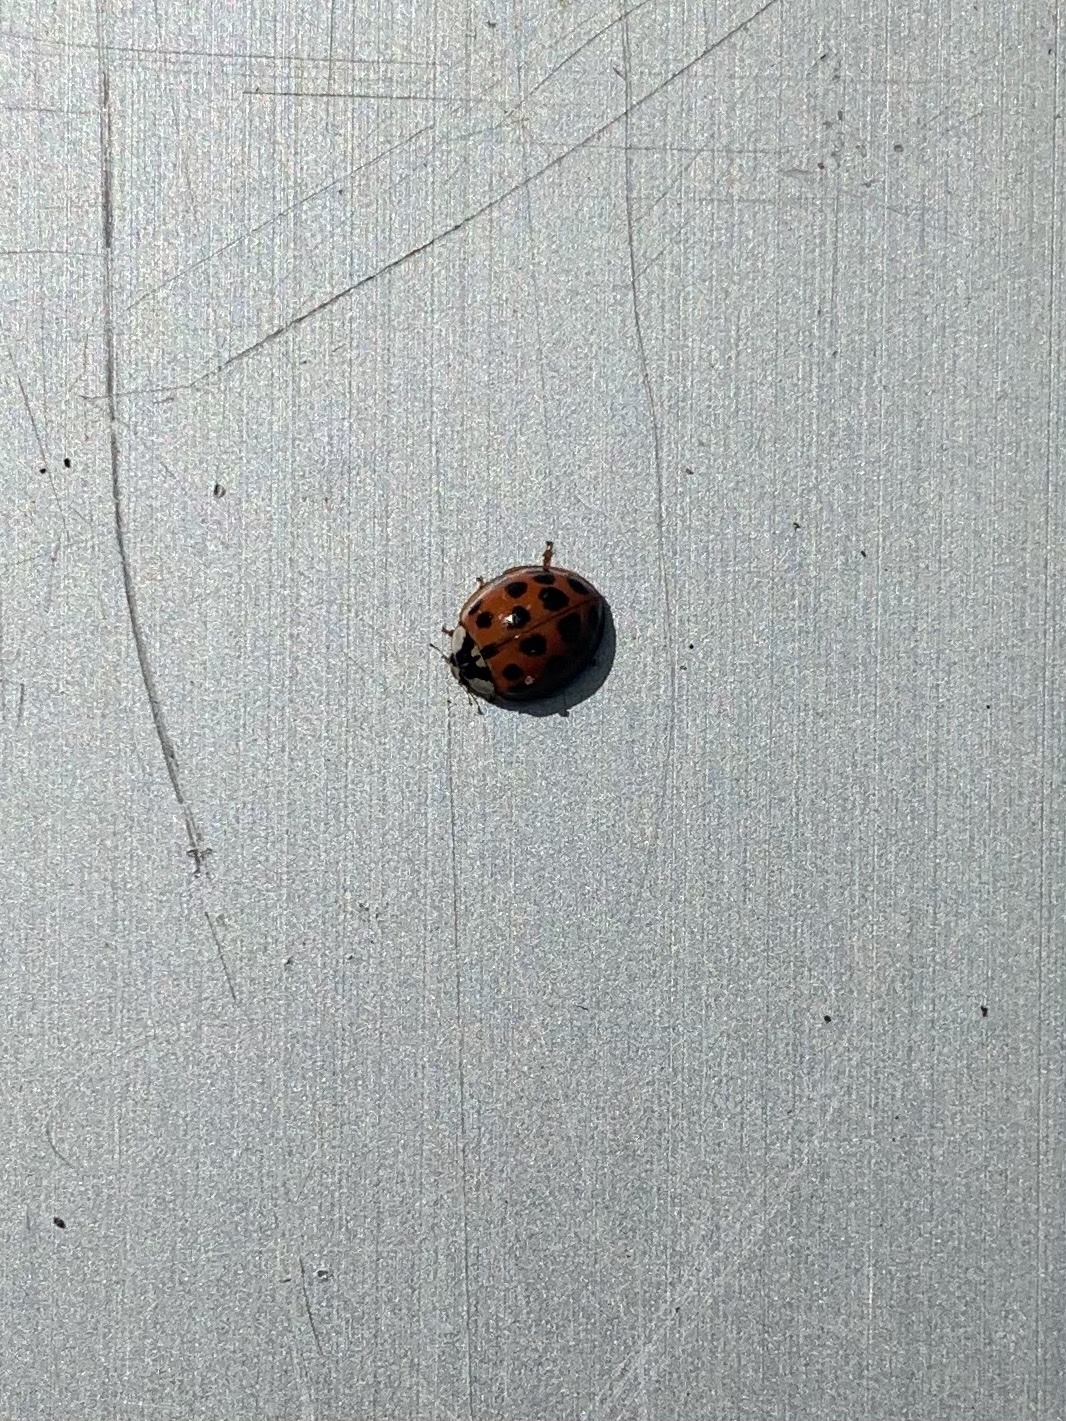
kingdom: Animalia
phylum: Arthropoda
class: Insecta
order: Coleoptera
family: Coccinellidae
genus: Harmonia
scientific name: Harmonia axyridis
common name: Harlequin ladybird
